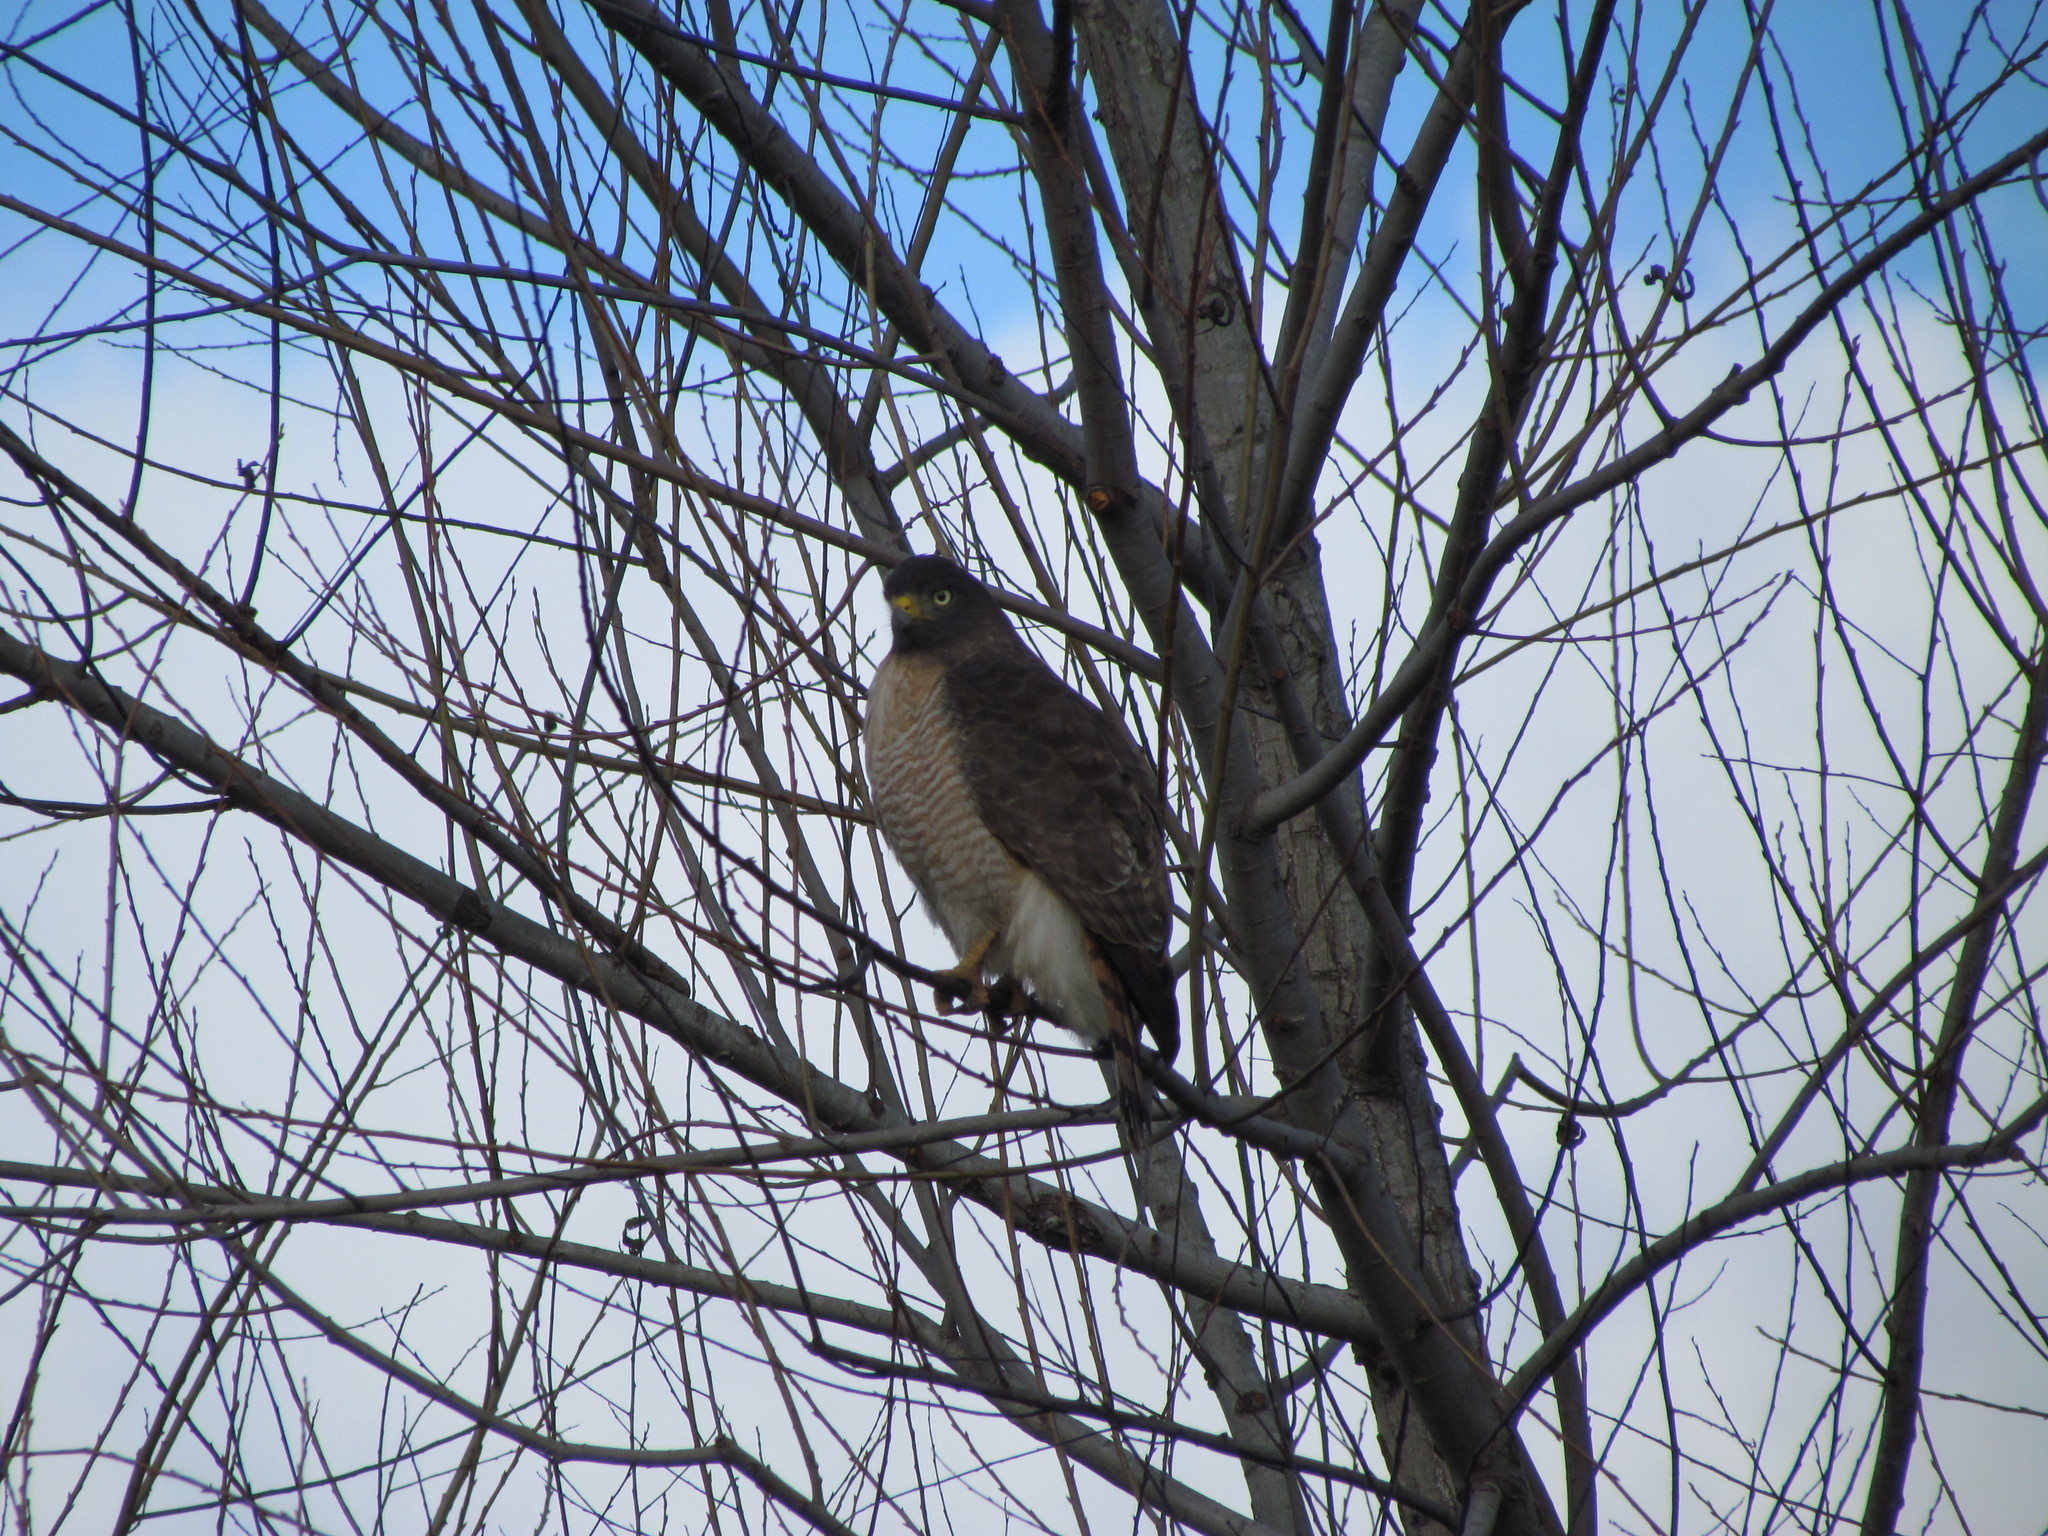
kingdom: Animalia
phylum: Chordata
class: Aves
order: Accipitriformes
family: Accipitridae
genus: Rupornis
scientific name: Rupornis magnirostris
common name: Roadside hawk
